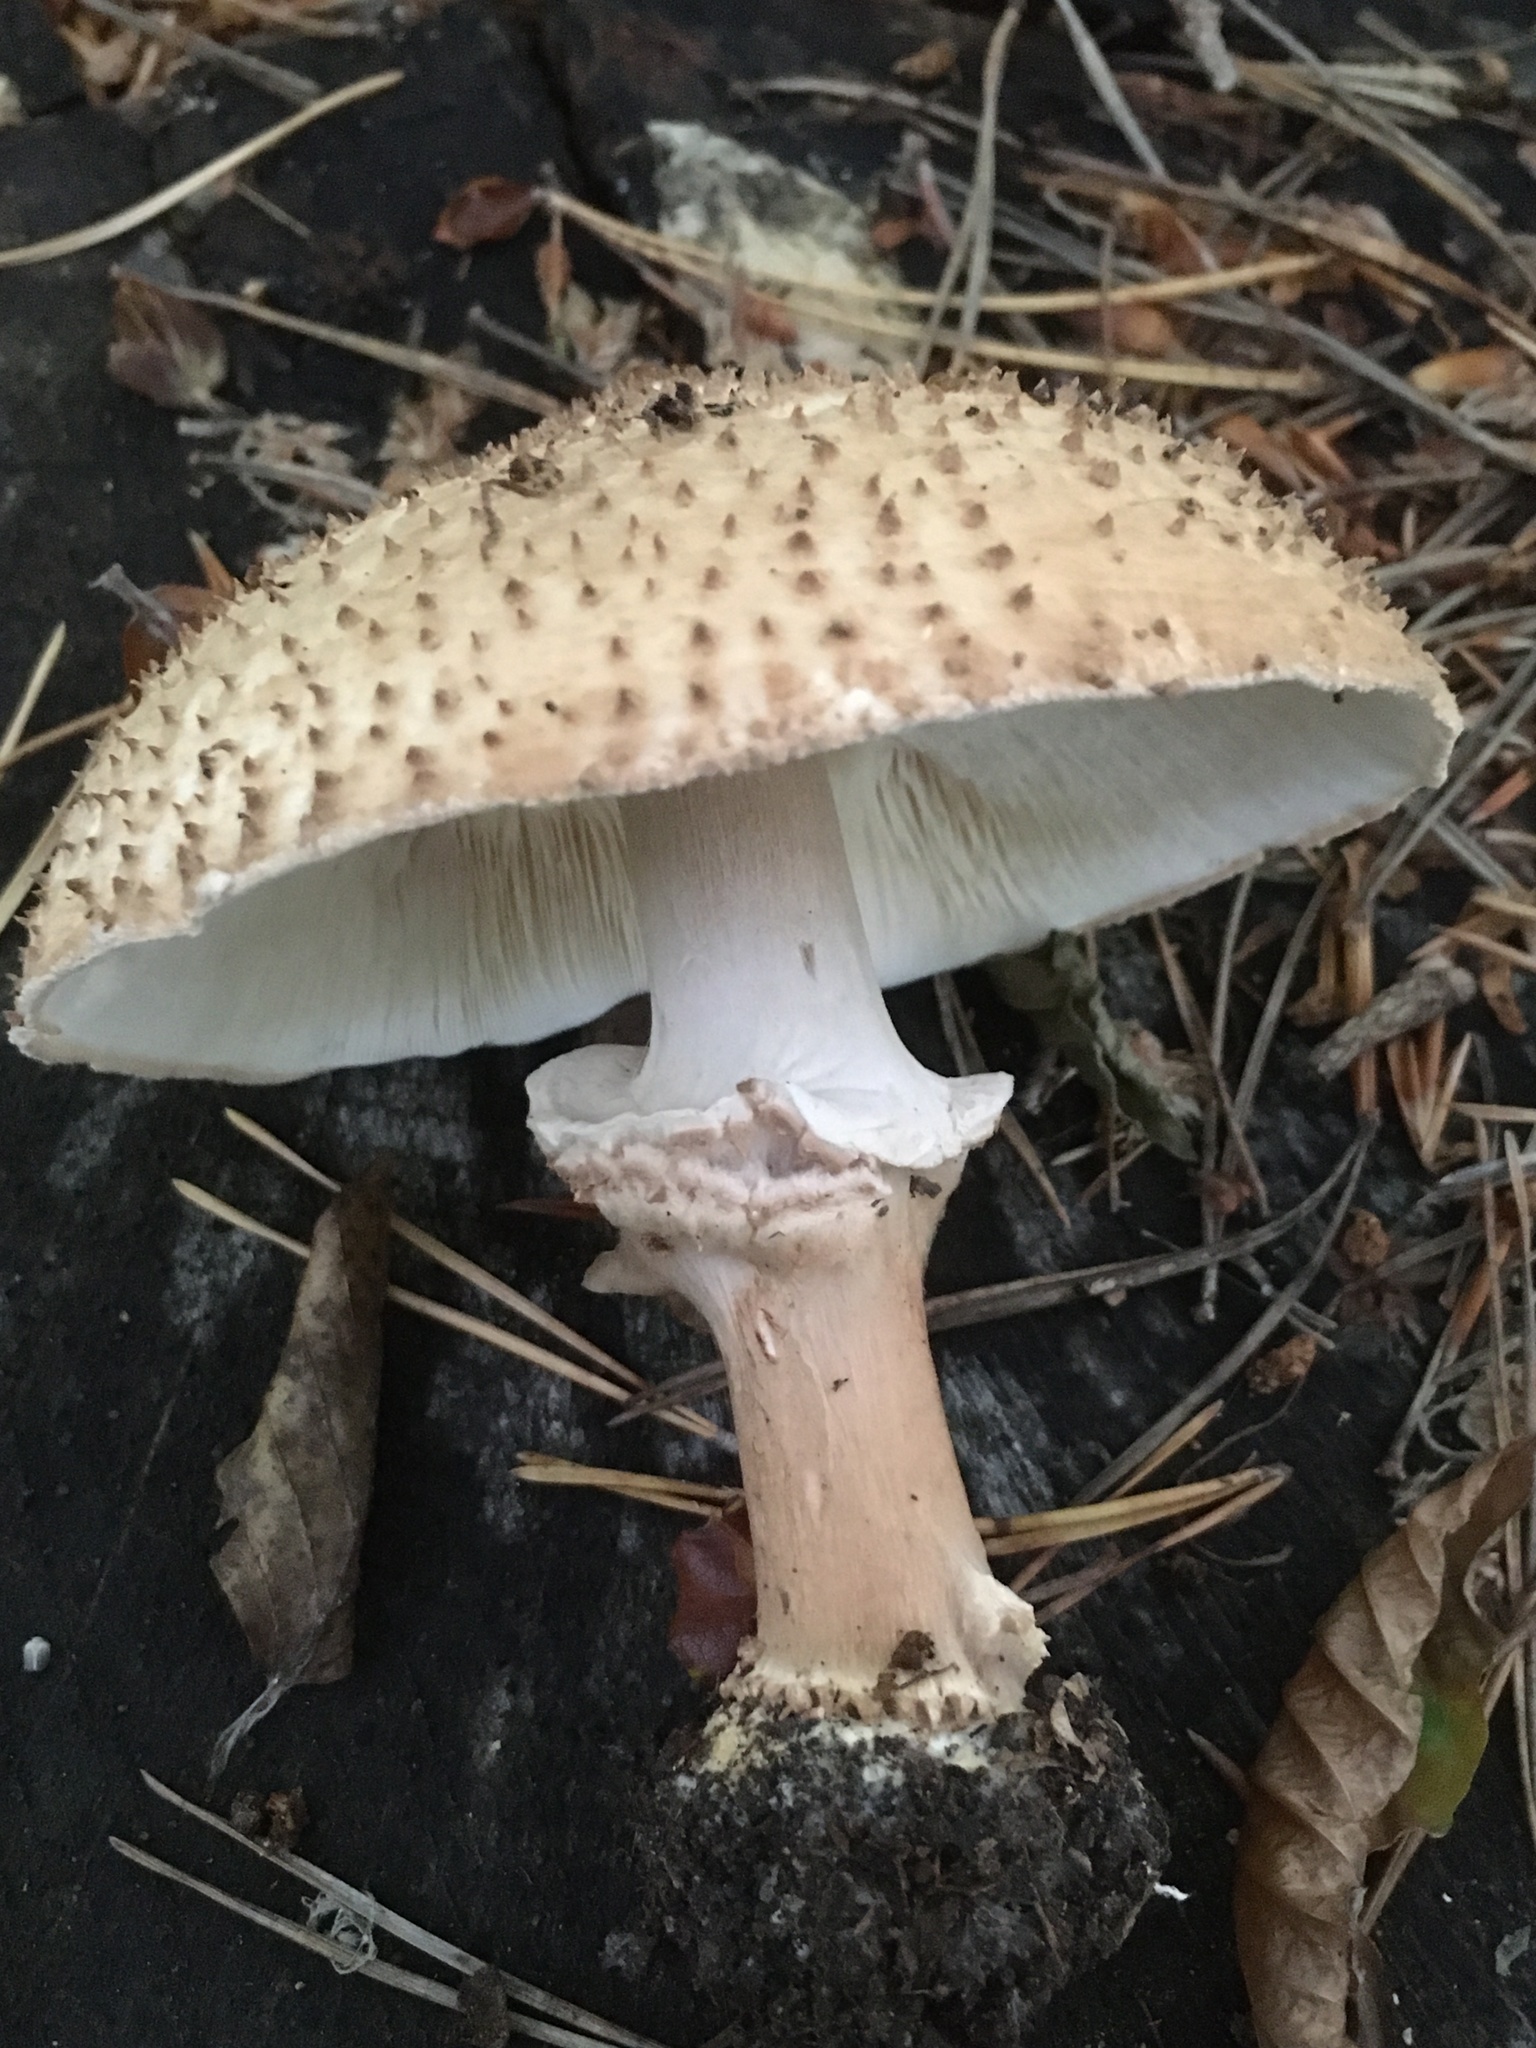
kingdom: Fungi
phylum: Basidiomycota
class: Agaricomycetes
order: Agaricales
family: Agaricaceae
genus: Echinoderma
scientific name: Echinoderma asperum
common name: Freckled dapperling
